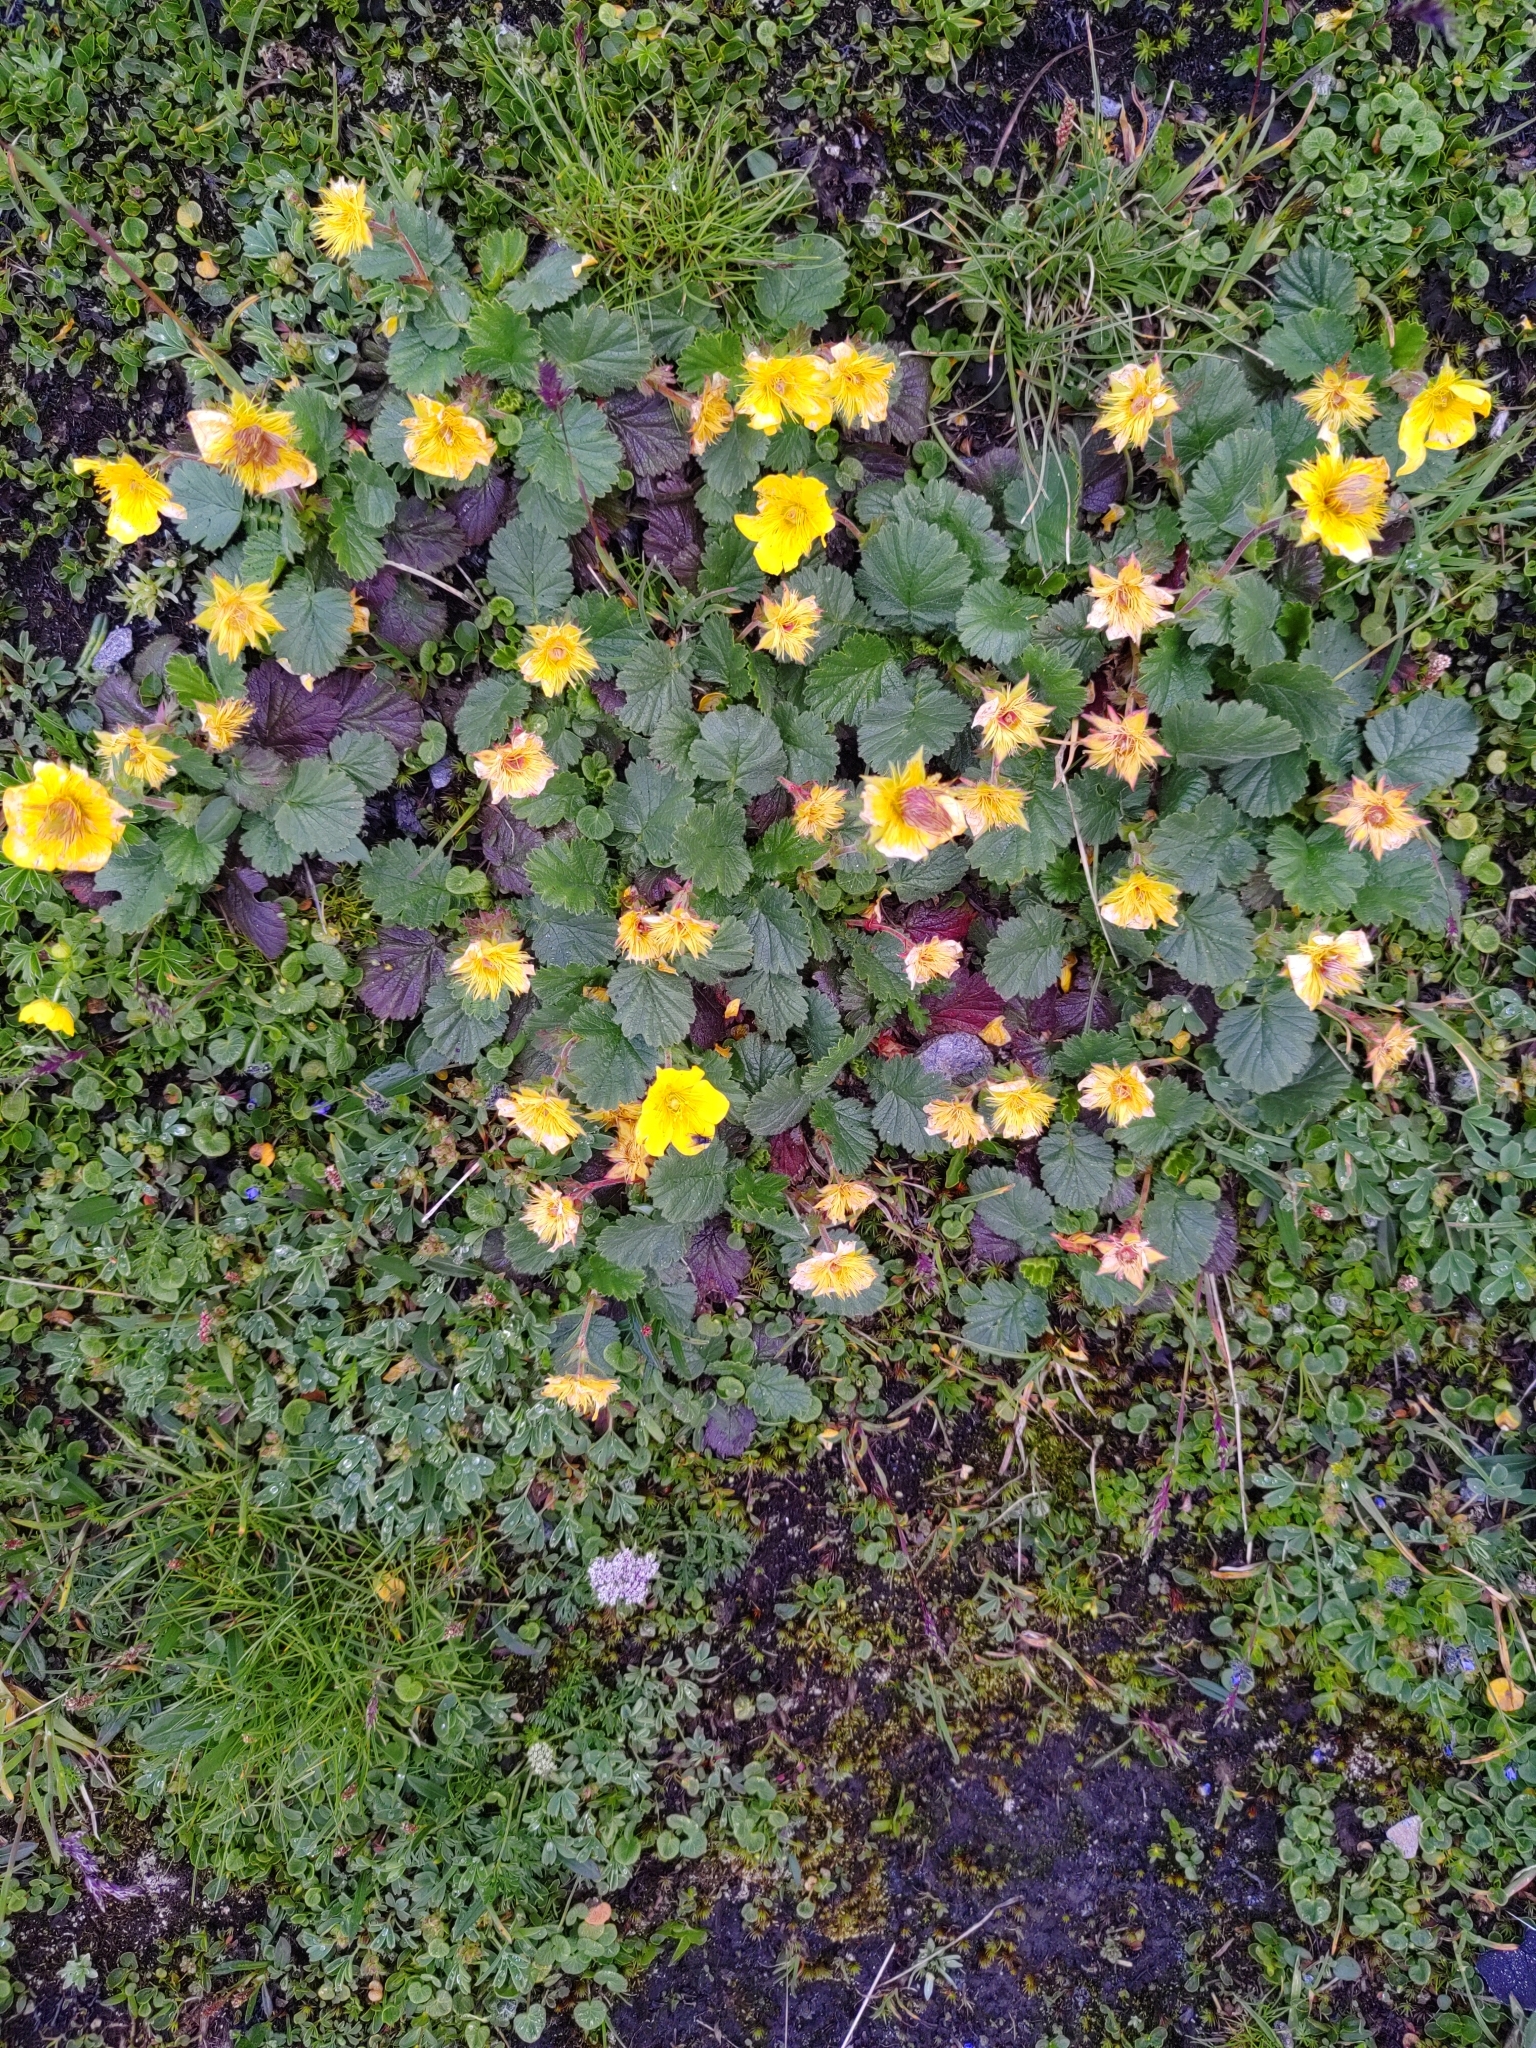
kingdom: Plantae
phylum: Tracheophyta
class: Magnoliopsida
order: Rosales
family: Rosaceae
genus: Geum
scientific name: Geum montanum
